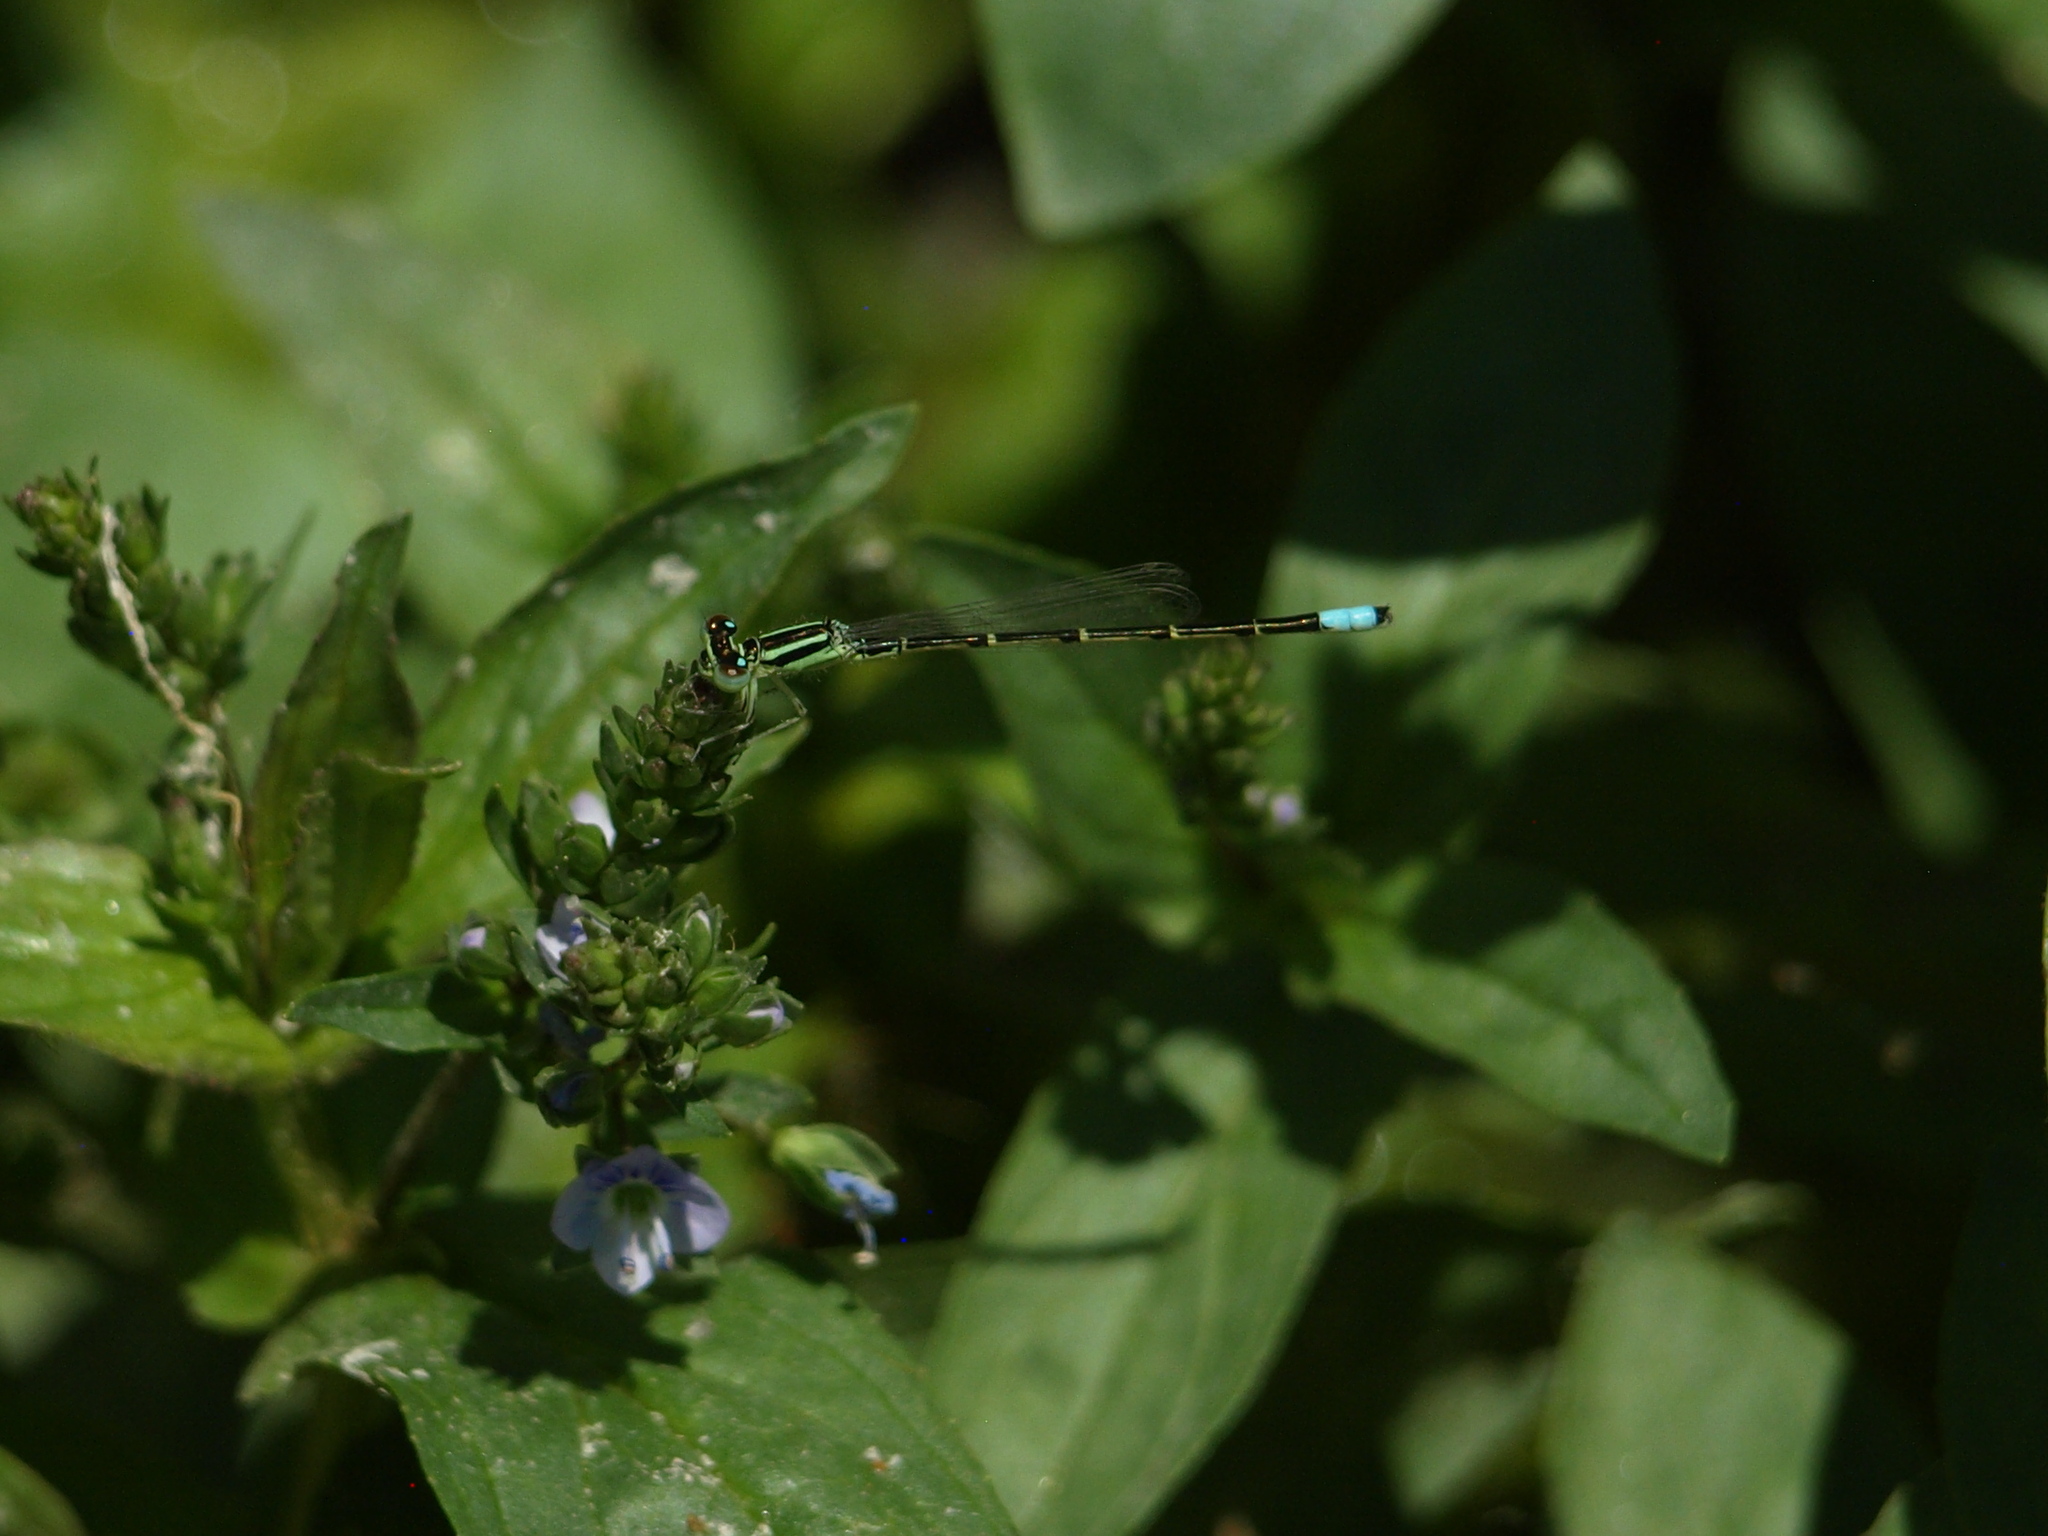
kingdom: Animalia
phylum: Arthropoda
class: Insecta
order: Odonata
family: Coenagrionidae
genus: Ischnura
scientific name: Ischnura demorsa
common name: Mexican forktail
